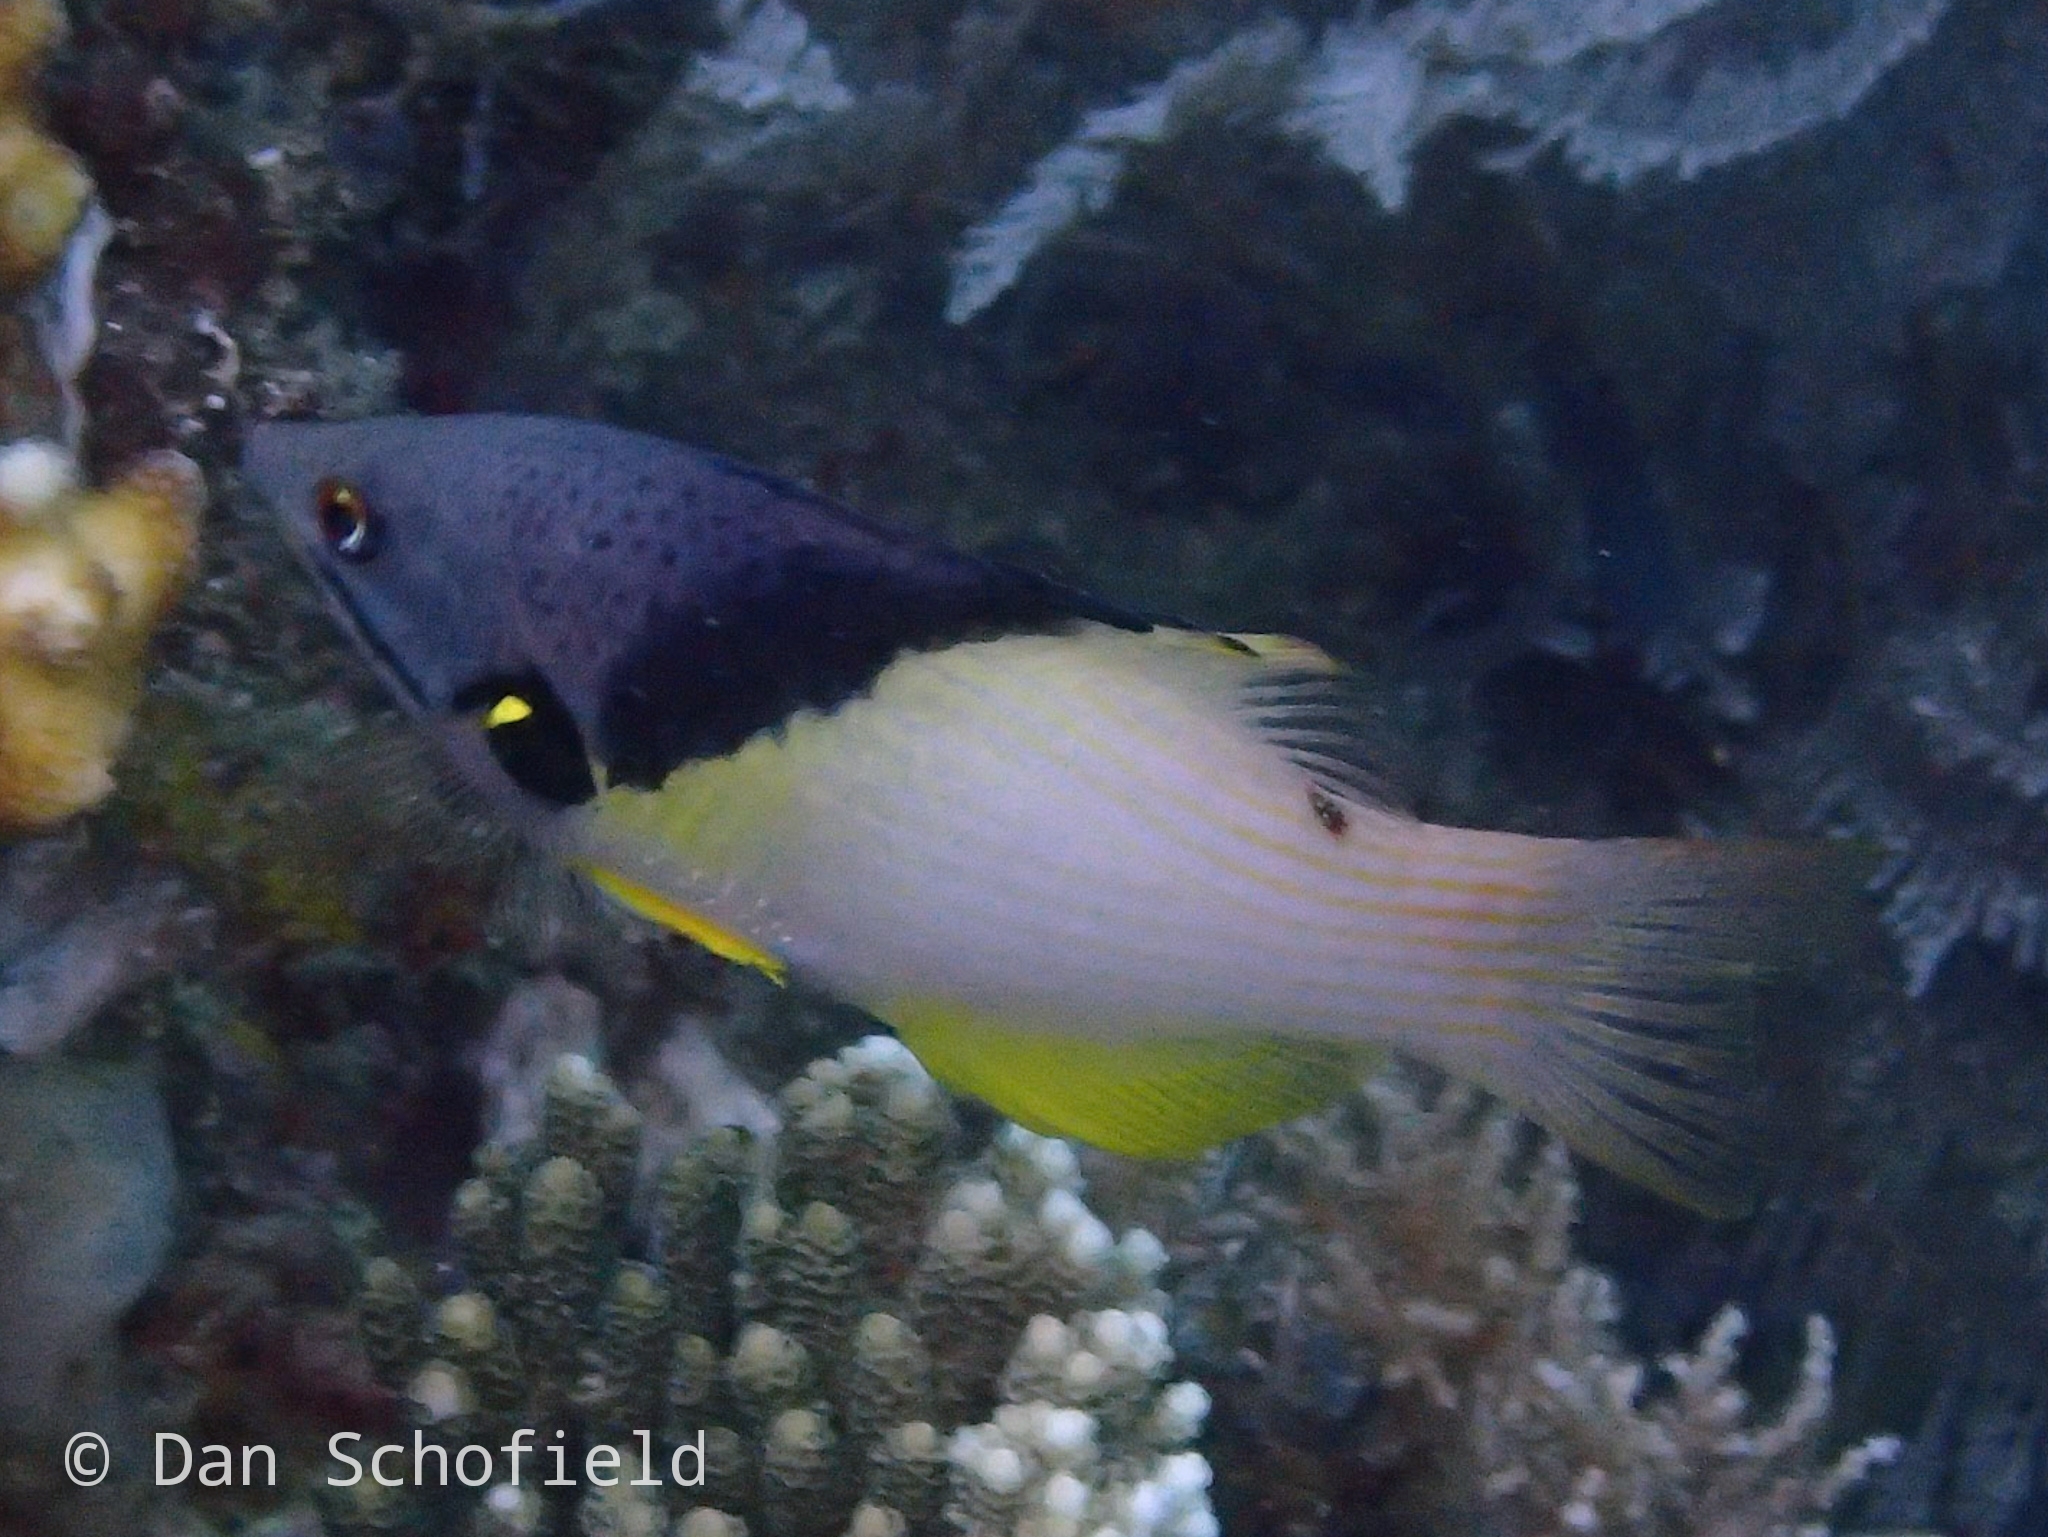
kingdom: Animalia
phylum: Chordata
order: Perciformes
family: Labridae
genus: Bodianus
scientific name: Bodianus mesothorax
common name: Coral hogfish
